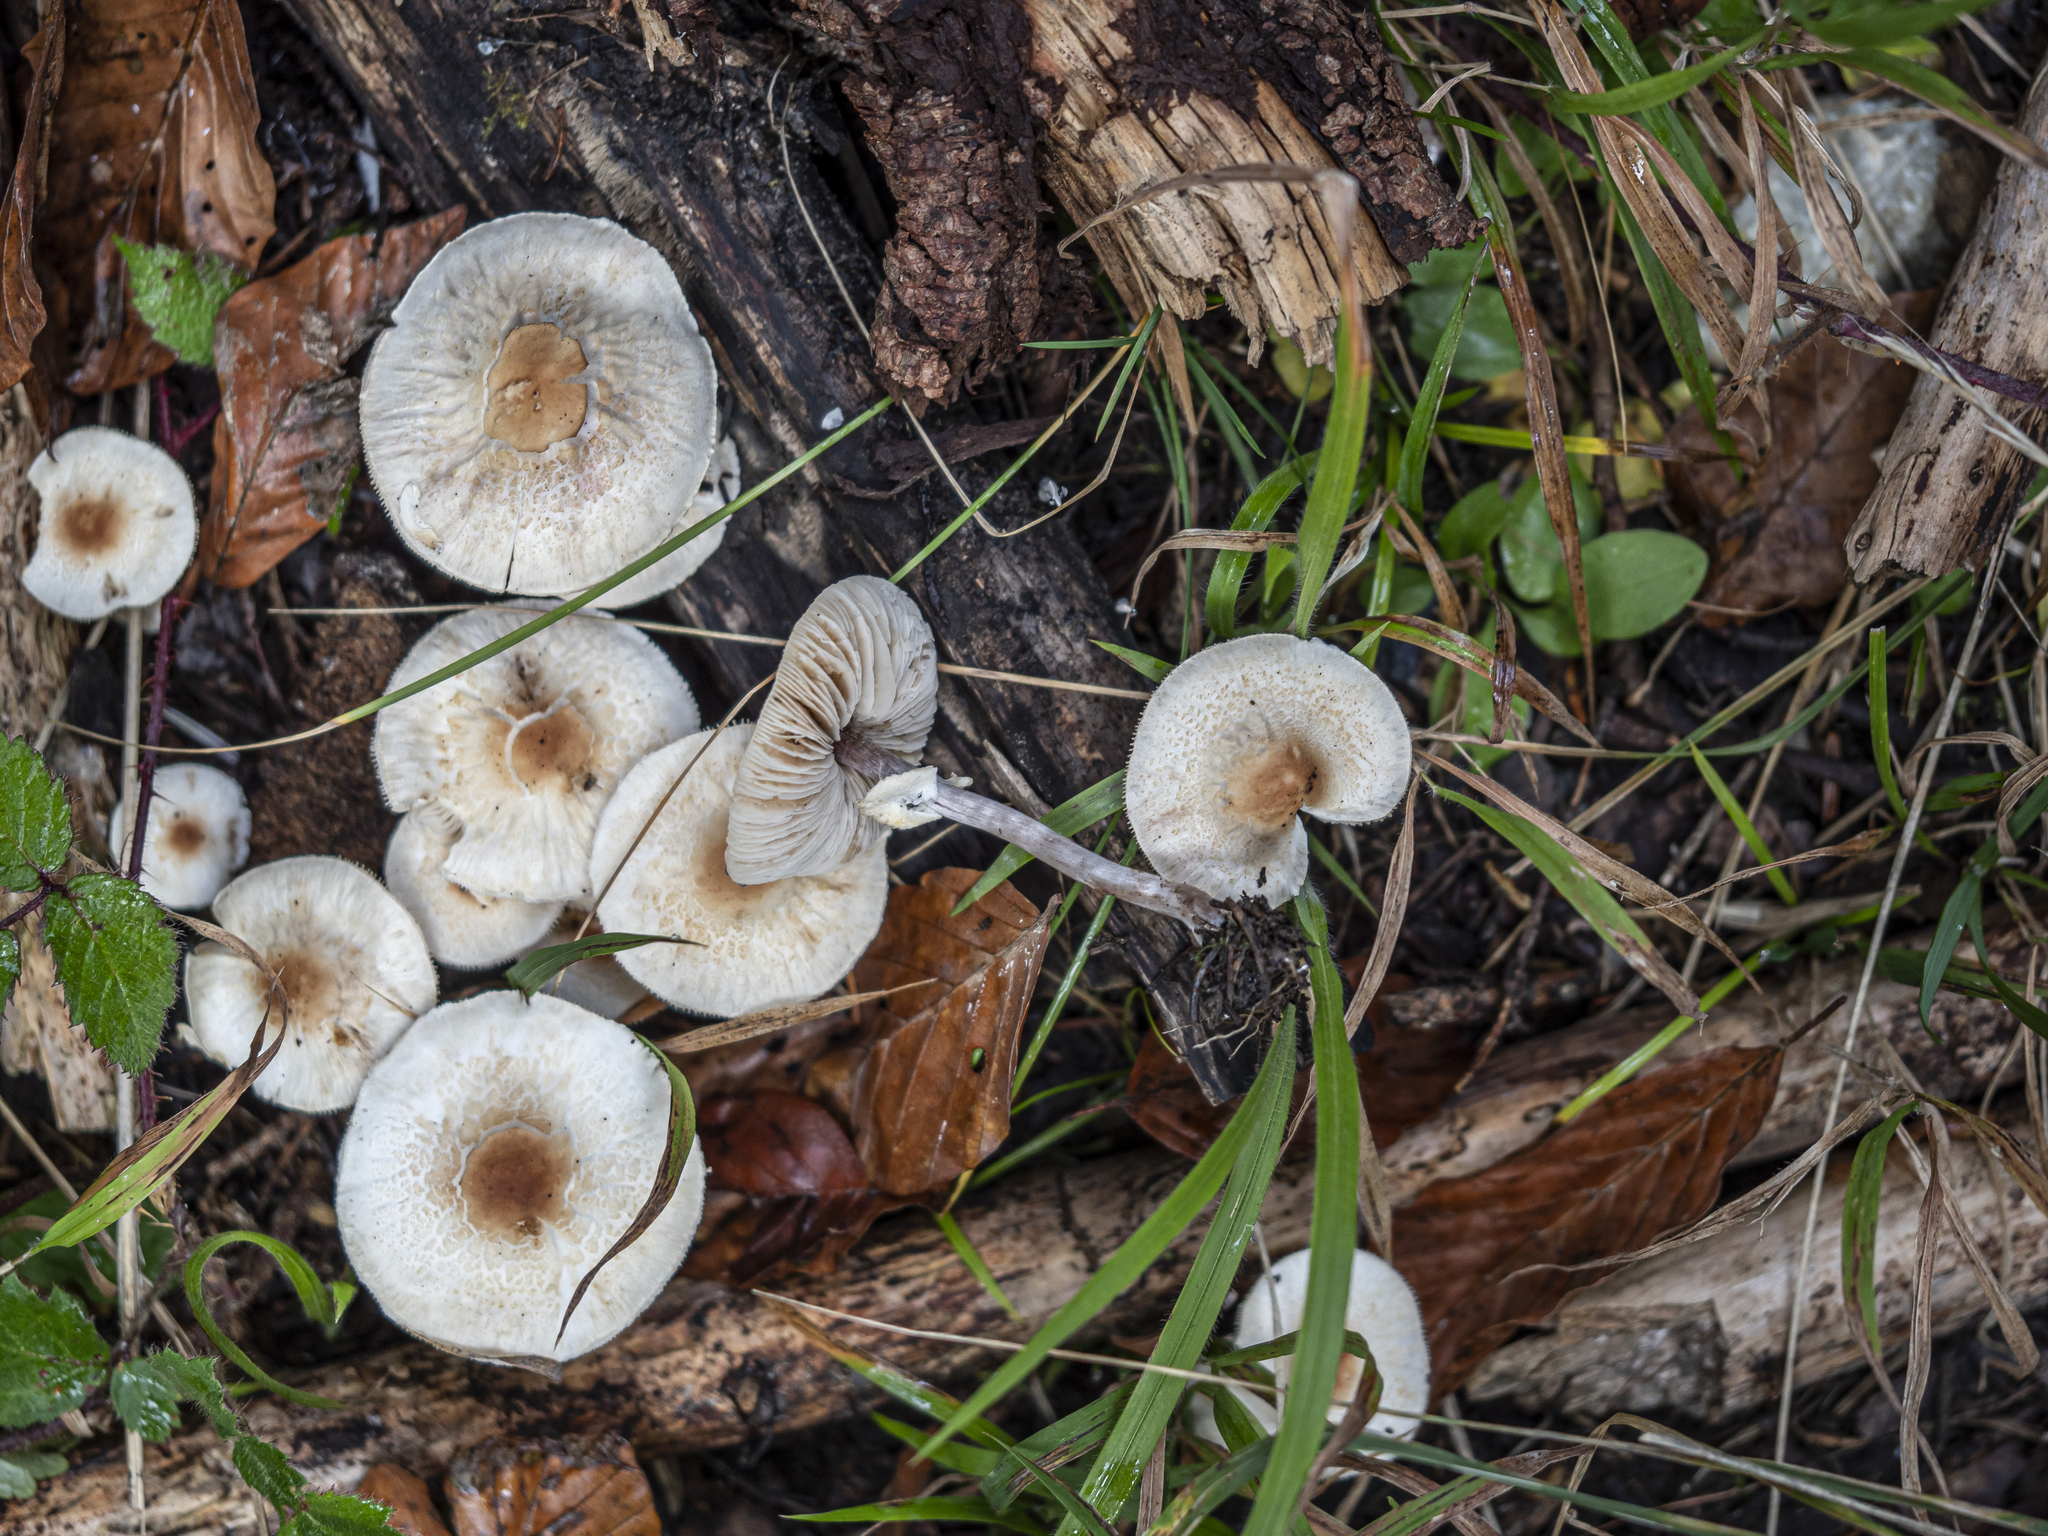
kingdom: Fungi
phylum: Basidiomycota
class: Agaricomycetes
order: Agaricales
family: Agaricaceae
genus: Lepiota
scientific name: Lepiota cristata
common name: Stinking dapperling
